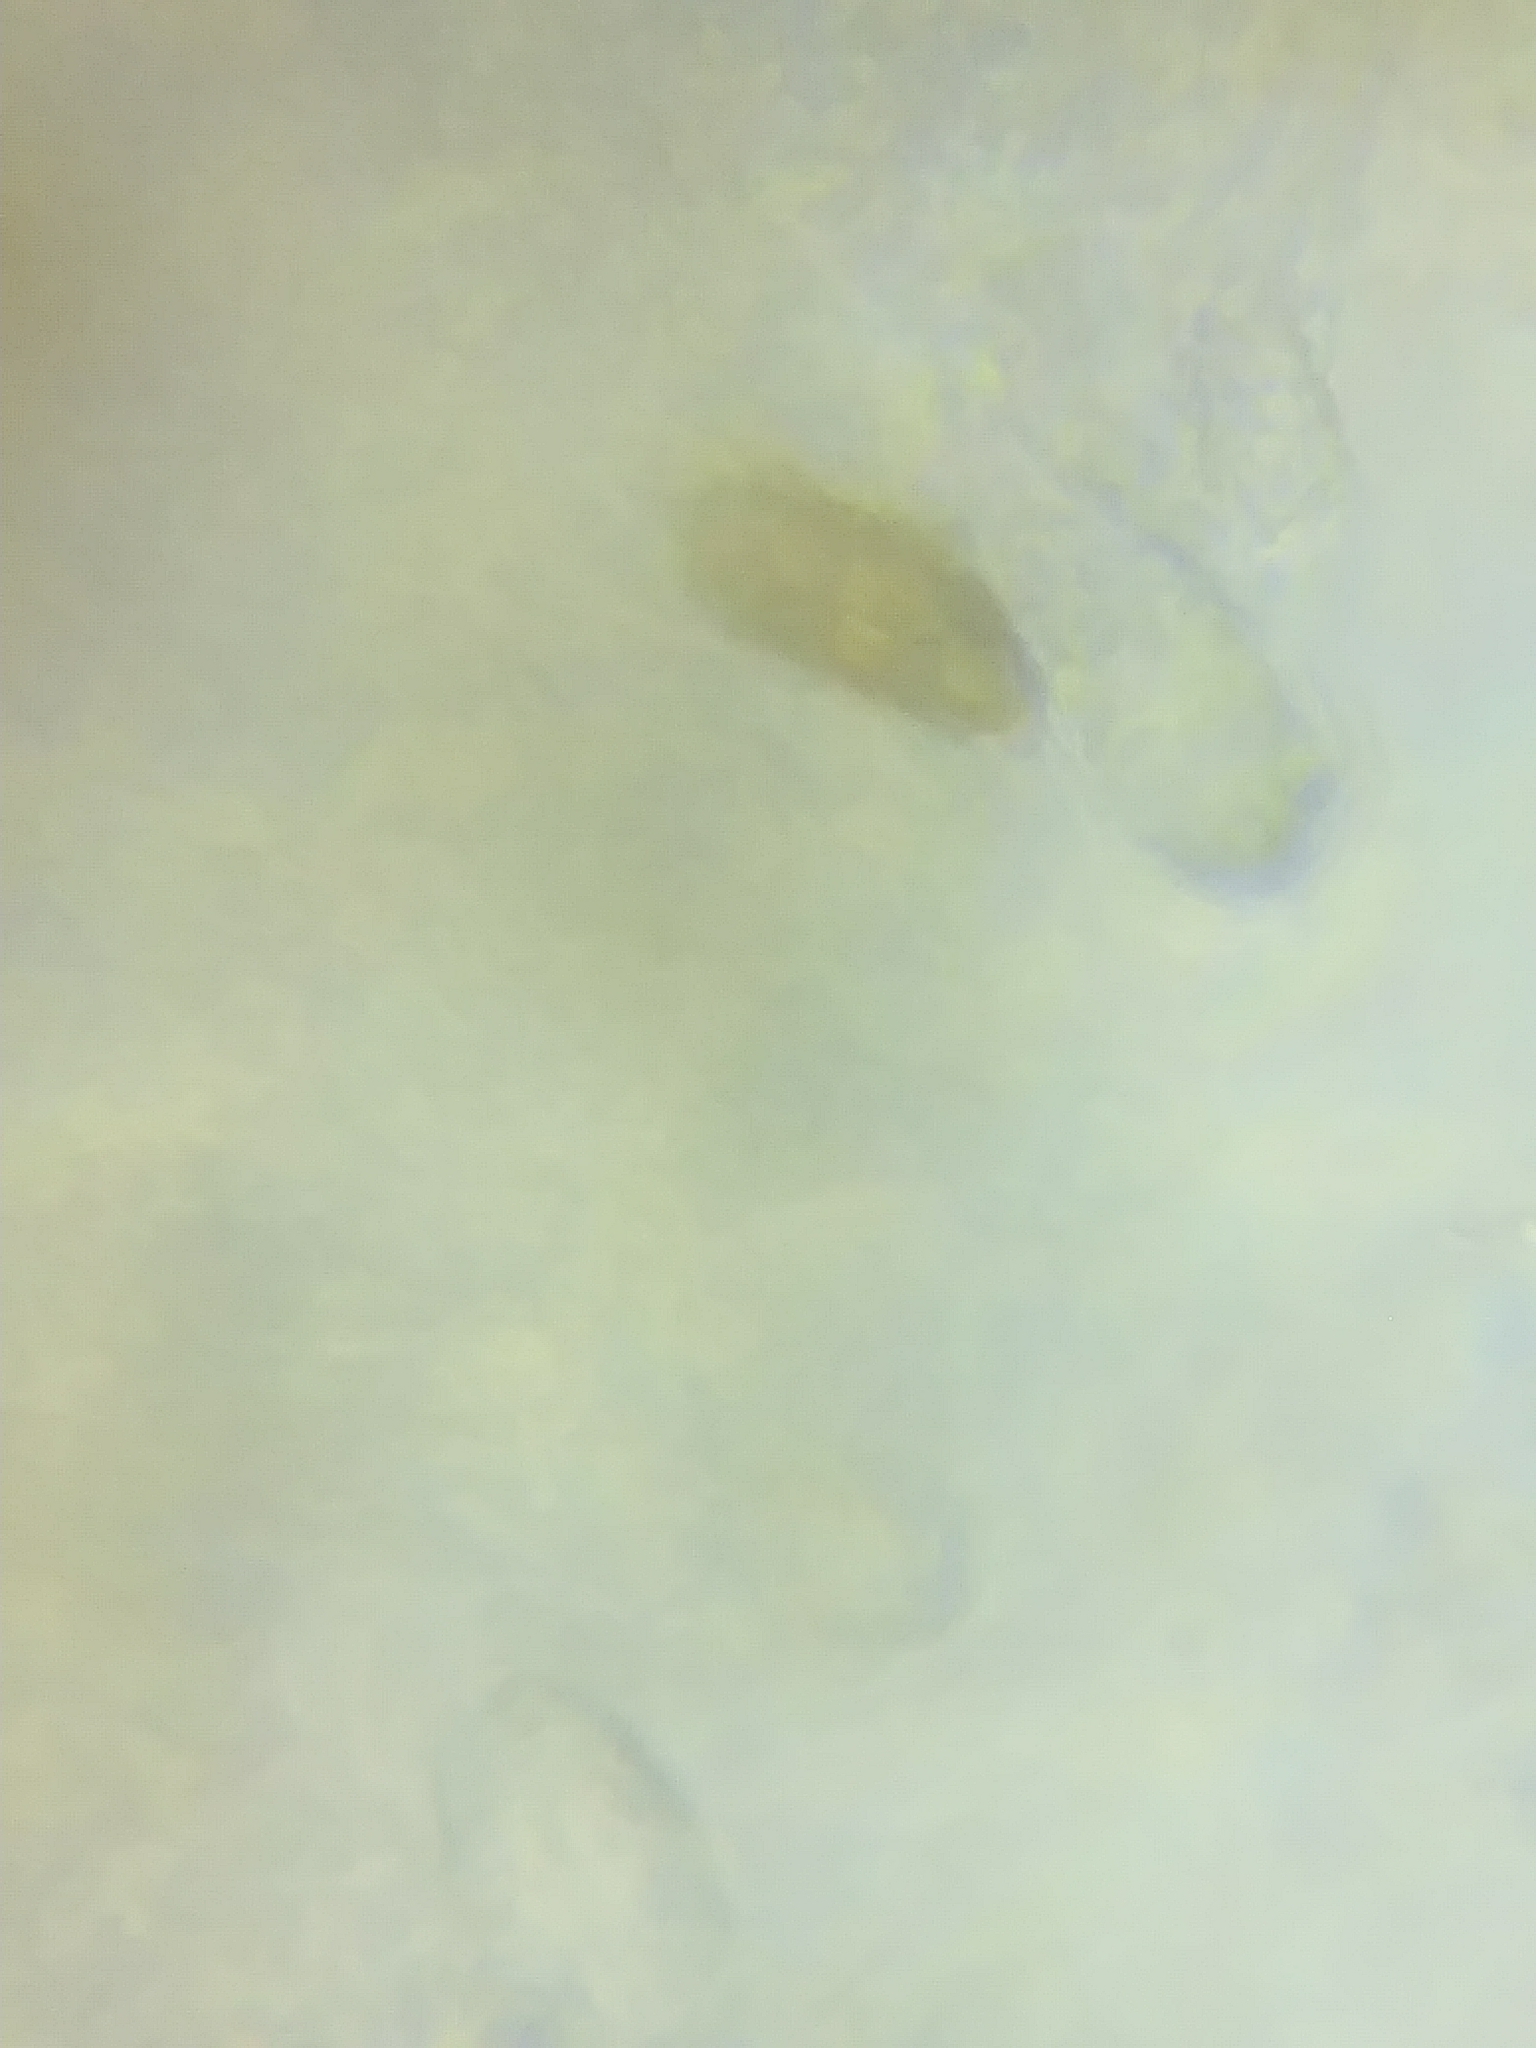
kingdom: Fungi
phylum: Basidiomycota
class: Agaricomycetes
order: Polyporales
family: Steccherinaceae
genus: Junghuhnia
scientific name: Junghuhnia nitida
